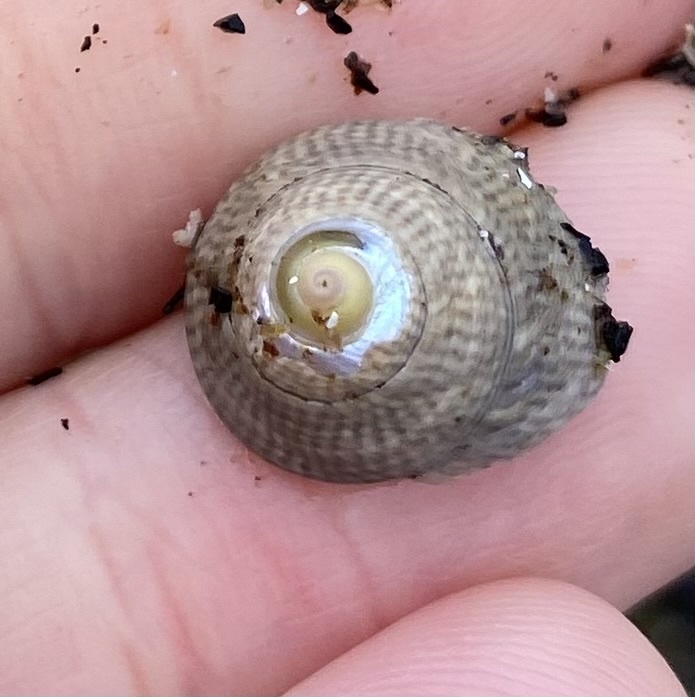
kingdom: Animalia
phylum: Mollusca
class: Gastropoda
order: Trochida
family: Trochidae
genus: Steromphala
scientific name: Steromphala cineraria
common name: Grey top shell
